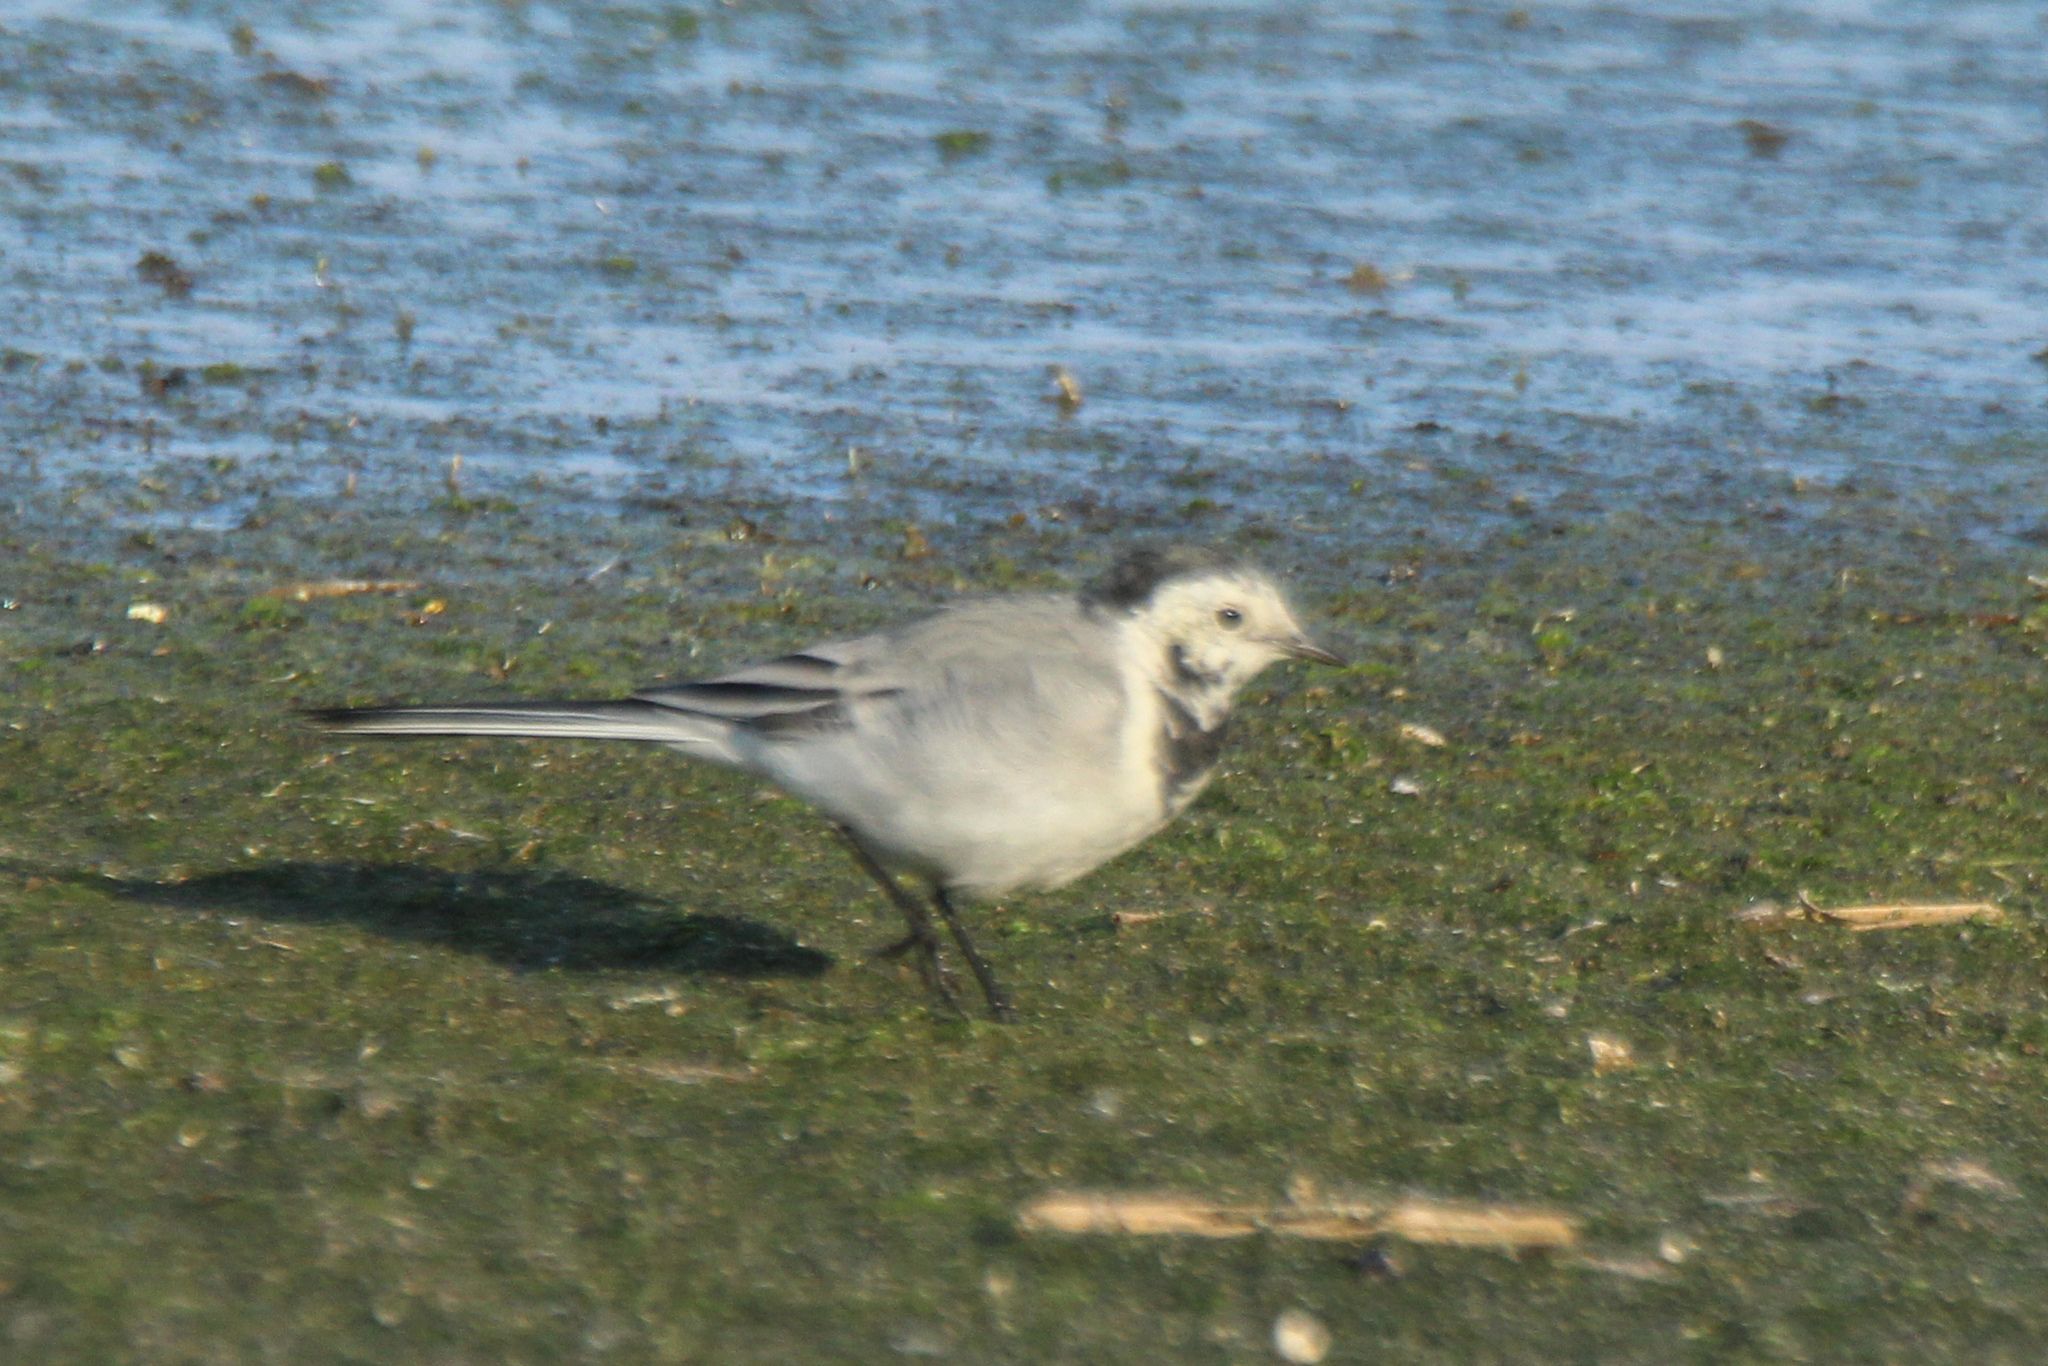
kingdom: Animalia
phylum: Chordata
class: Aves
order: Passeriformes
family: Motacillidae
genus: Motacilla
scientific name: Motacilla alba
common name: White wagtail
